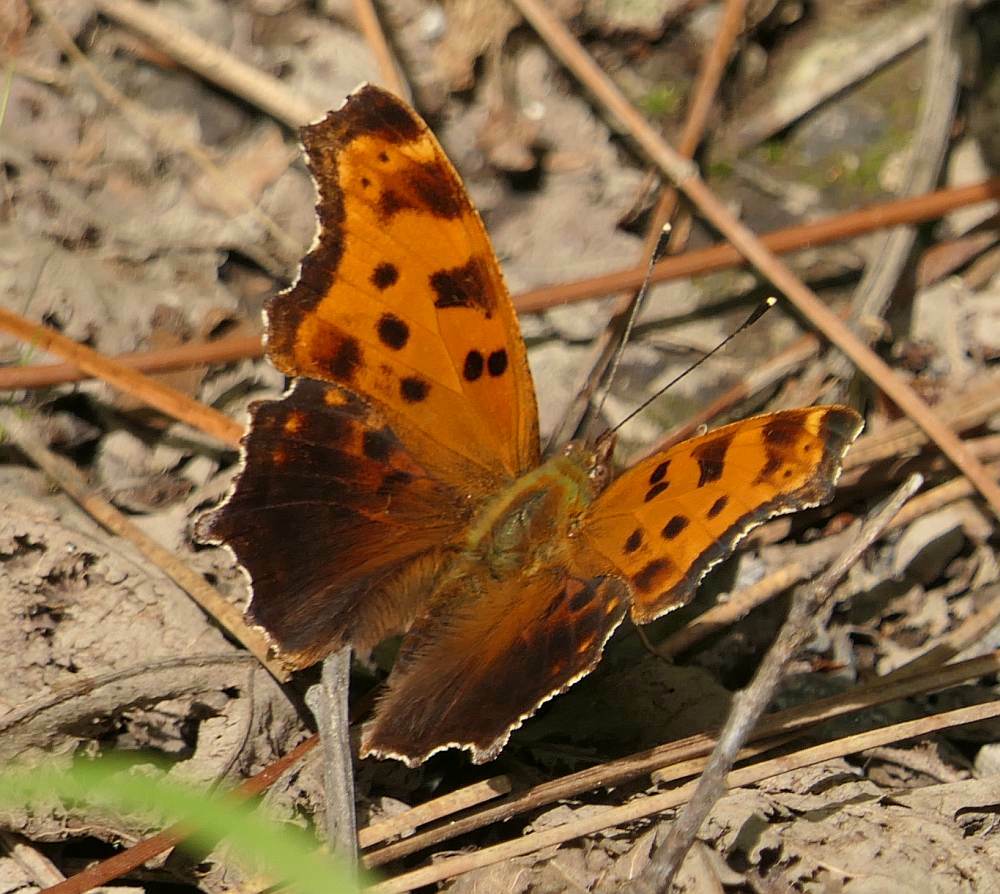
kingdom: Animalia
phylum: Arthropoda
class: Insecta
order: Lepidoptera
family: Nymphalidae
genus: Polygonia
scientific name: Polygonia comma
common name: Eastern comma
